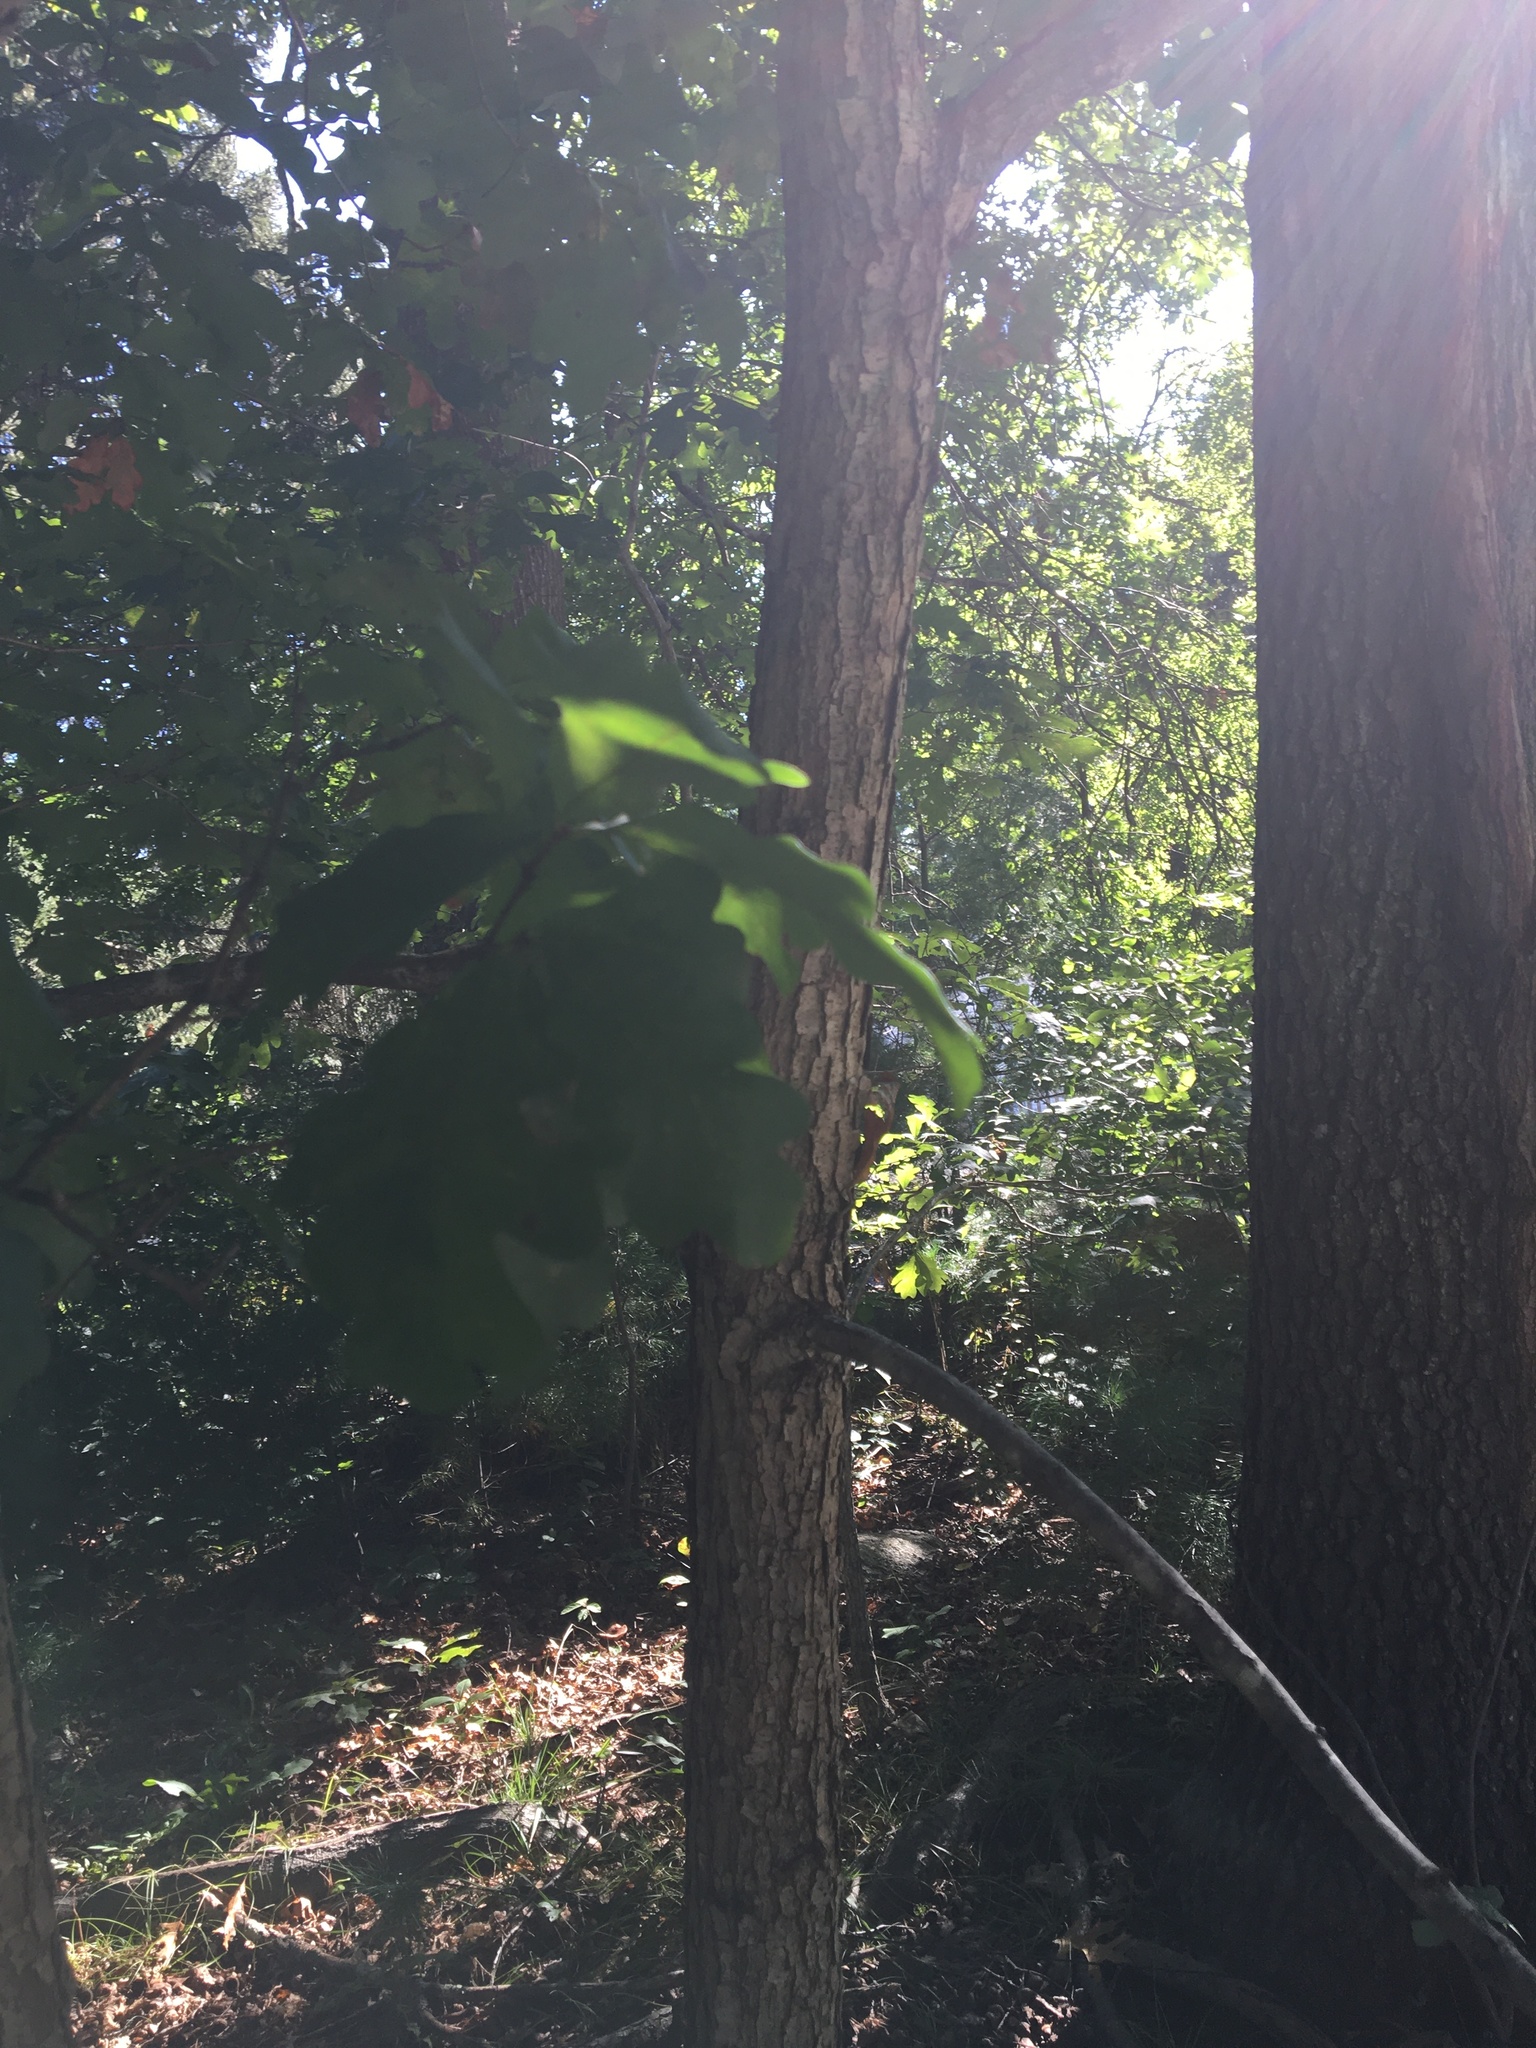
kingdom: Plantae
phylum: Tracheophyta
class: Magnoliopsida
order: Fagales
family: Fagaceae
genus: Quercus
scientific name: Quercus alba
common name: White oak
